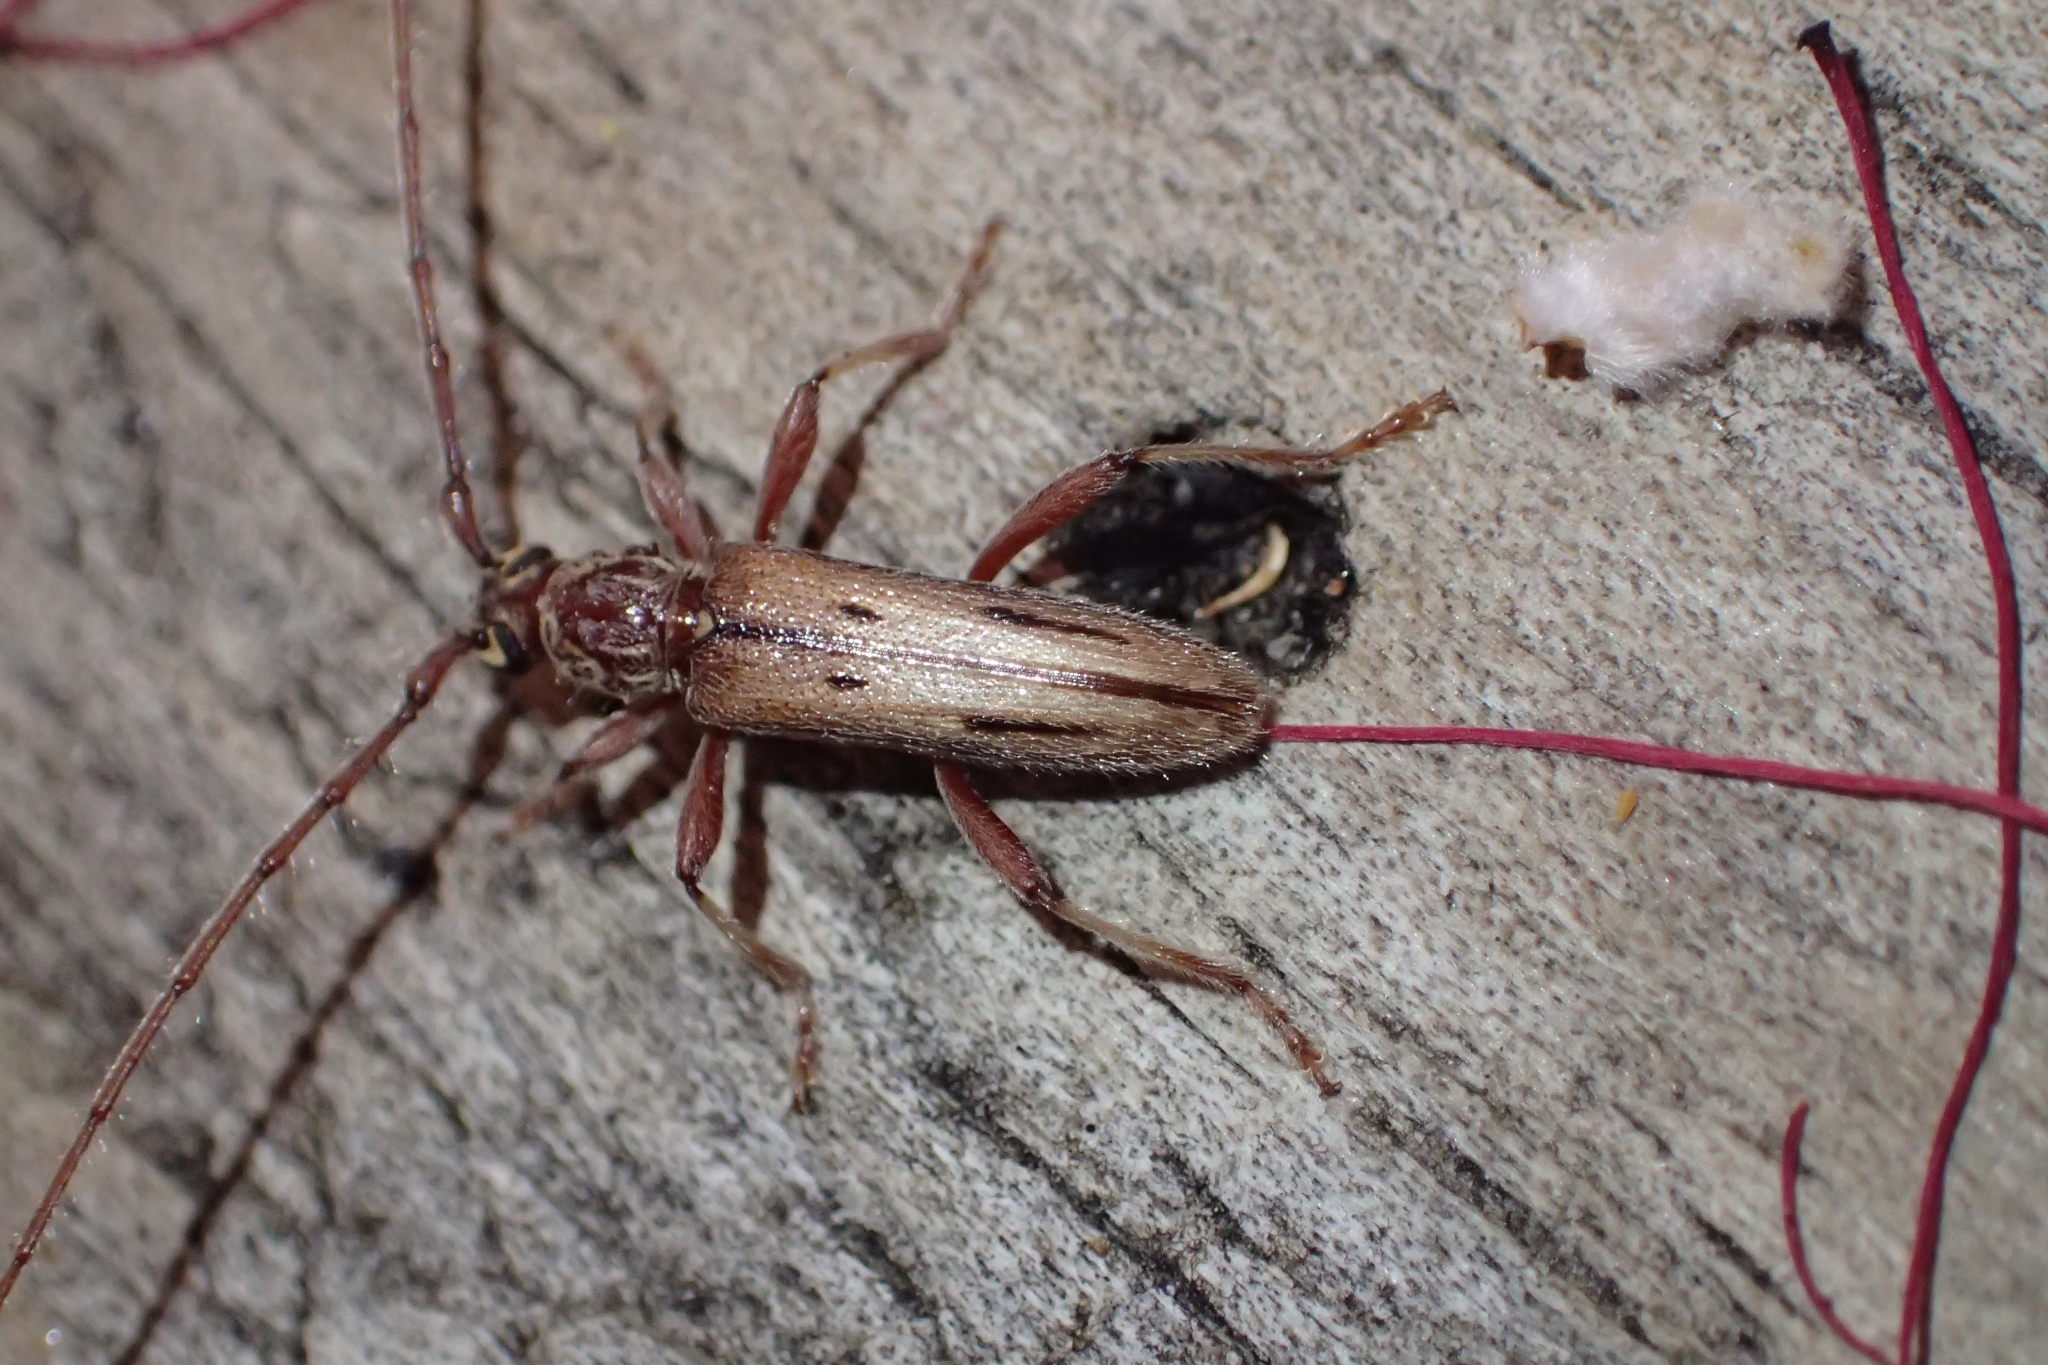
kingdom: Animalia
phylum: Arthropoda
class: Insecta
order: Coleoptera
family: Cerambycidae
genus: Didymocantha
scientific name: Didymocantha sublineata
